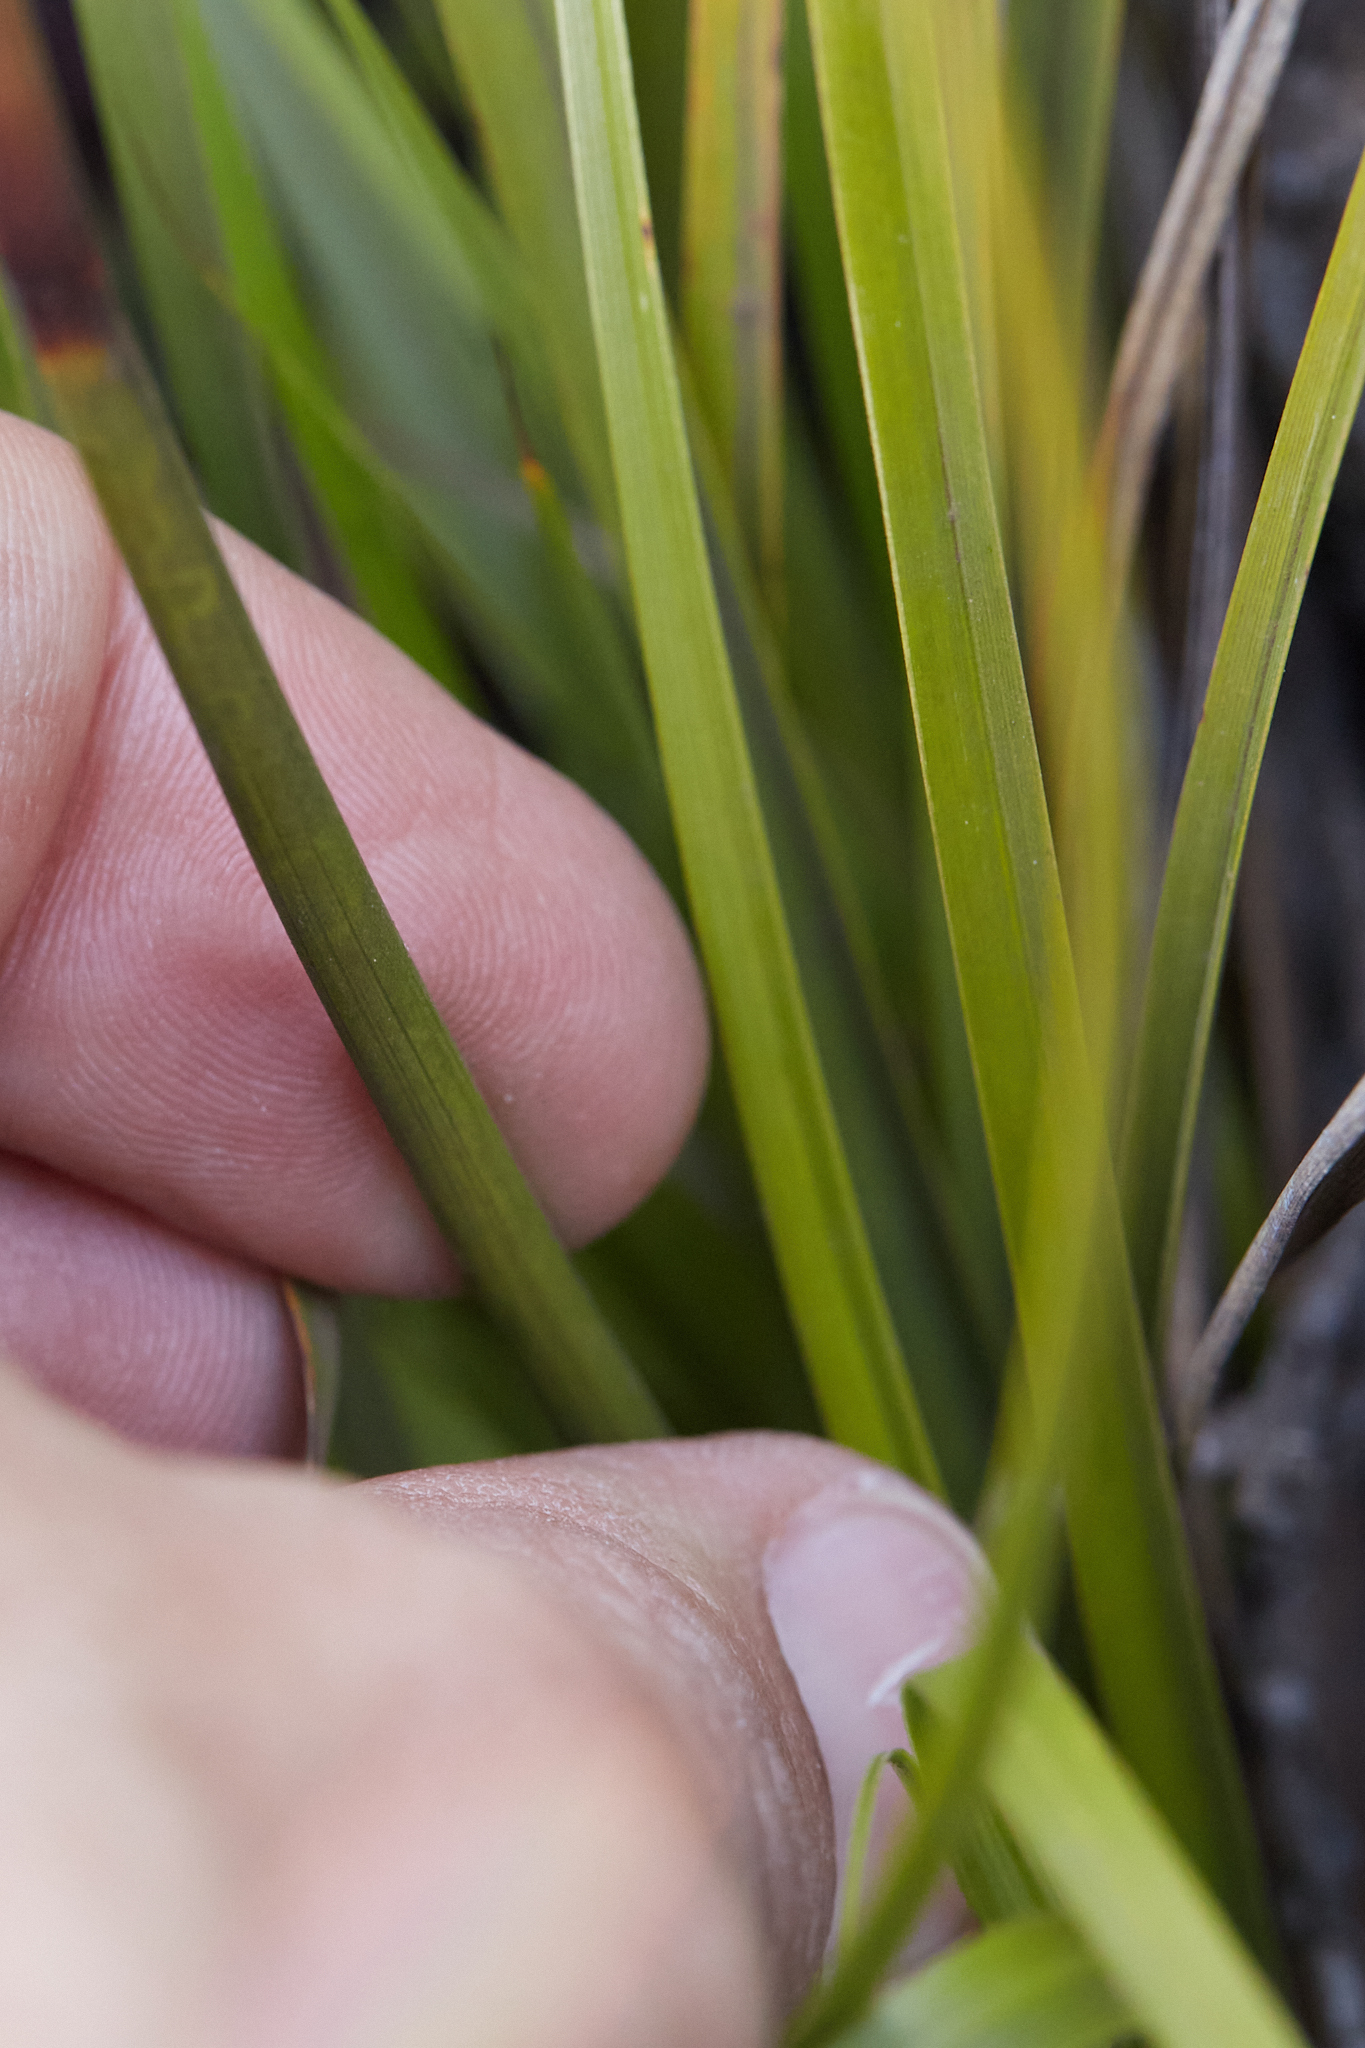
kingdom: Plantae
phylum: Tracheophyta
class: Liliopsida
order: Poales
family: Cyperaceae
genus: Morelotia
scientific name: Morelotia gahniiformis
